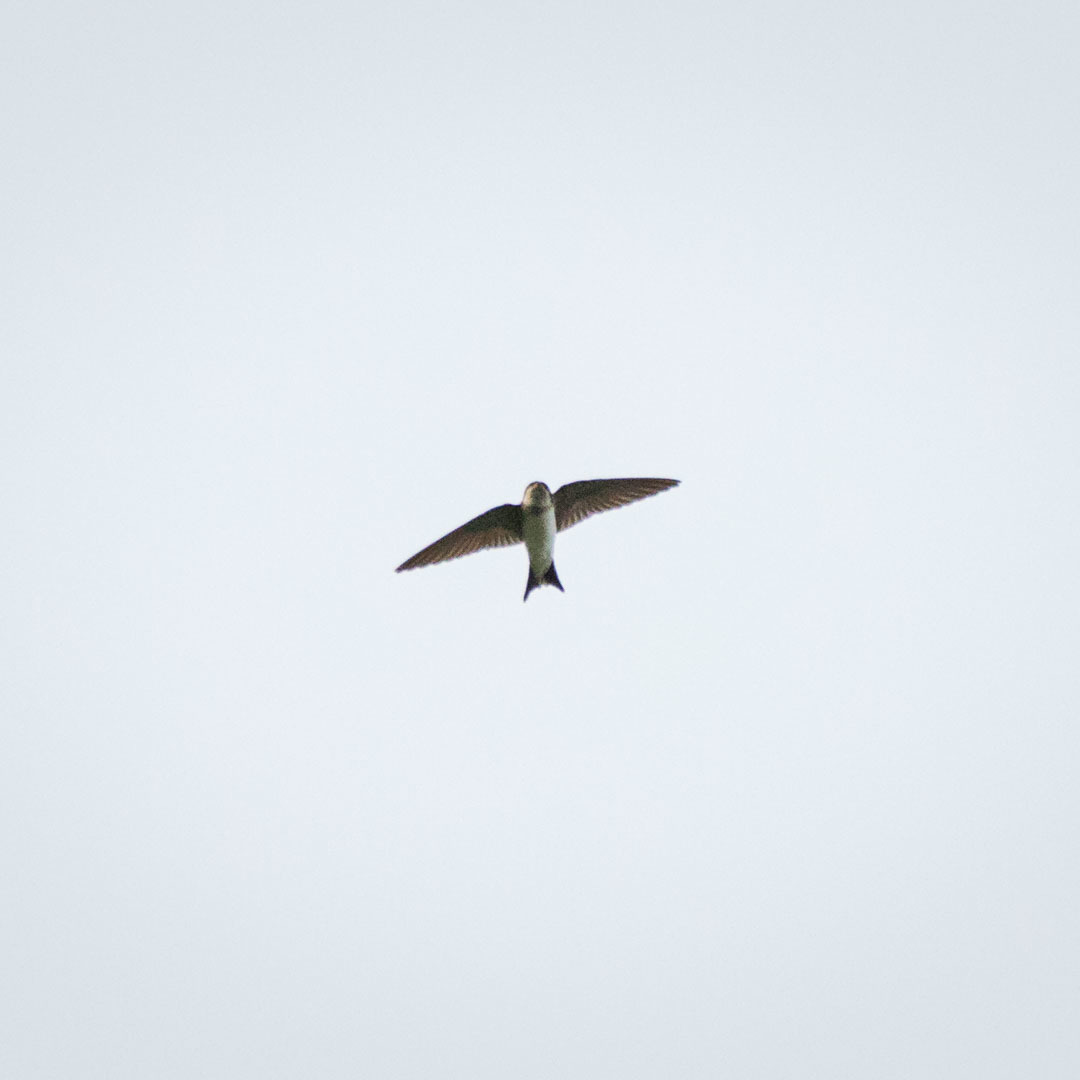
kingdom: Animalia
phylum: Chordata
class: Aves
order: Passeriformes
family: Hirundinidae
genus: Delichon
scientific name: Delichon urbicum
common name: Common house martin
